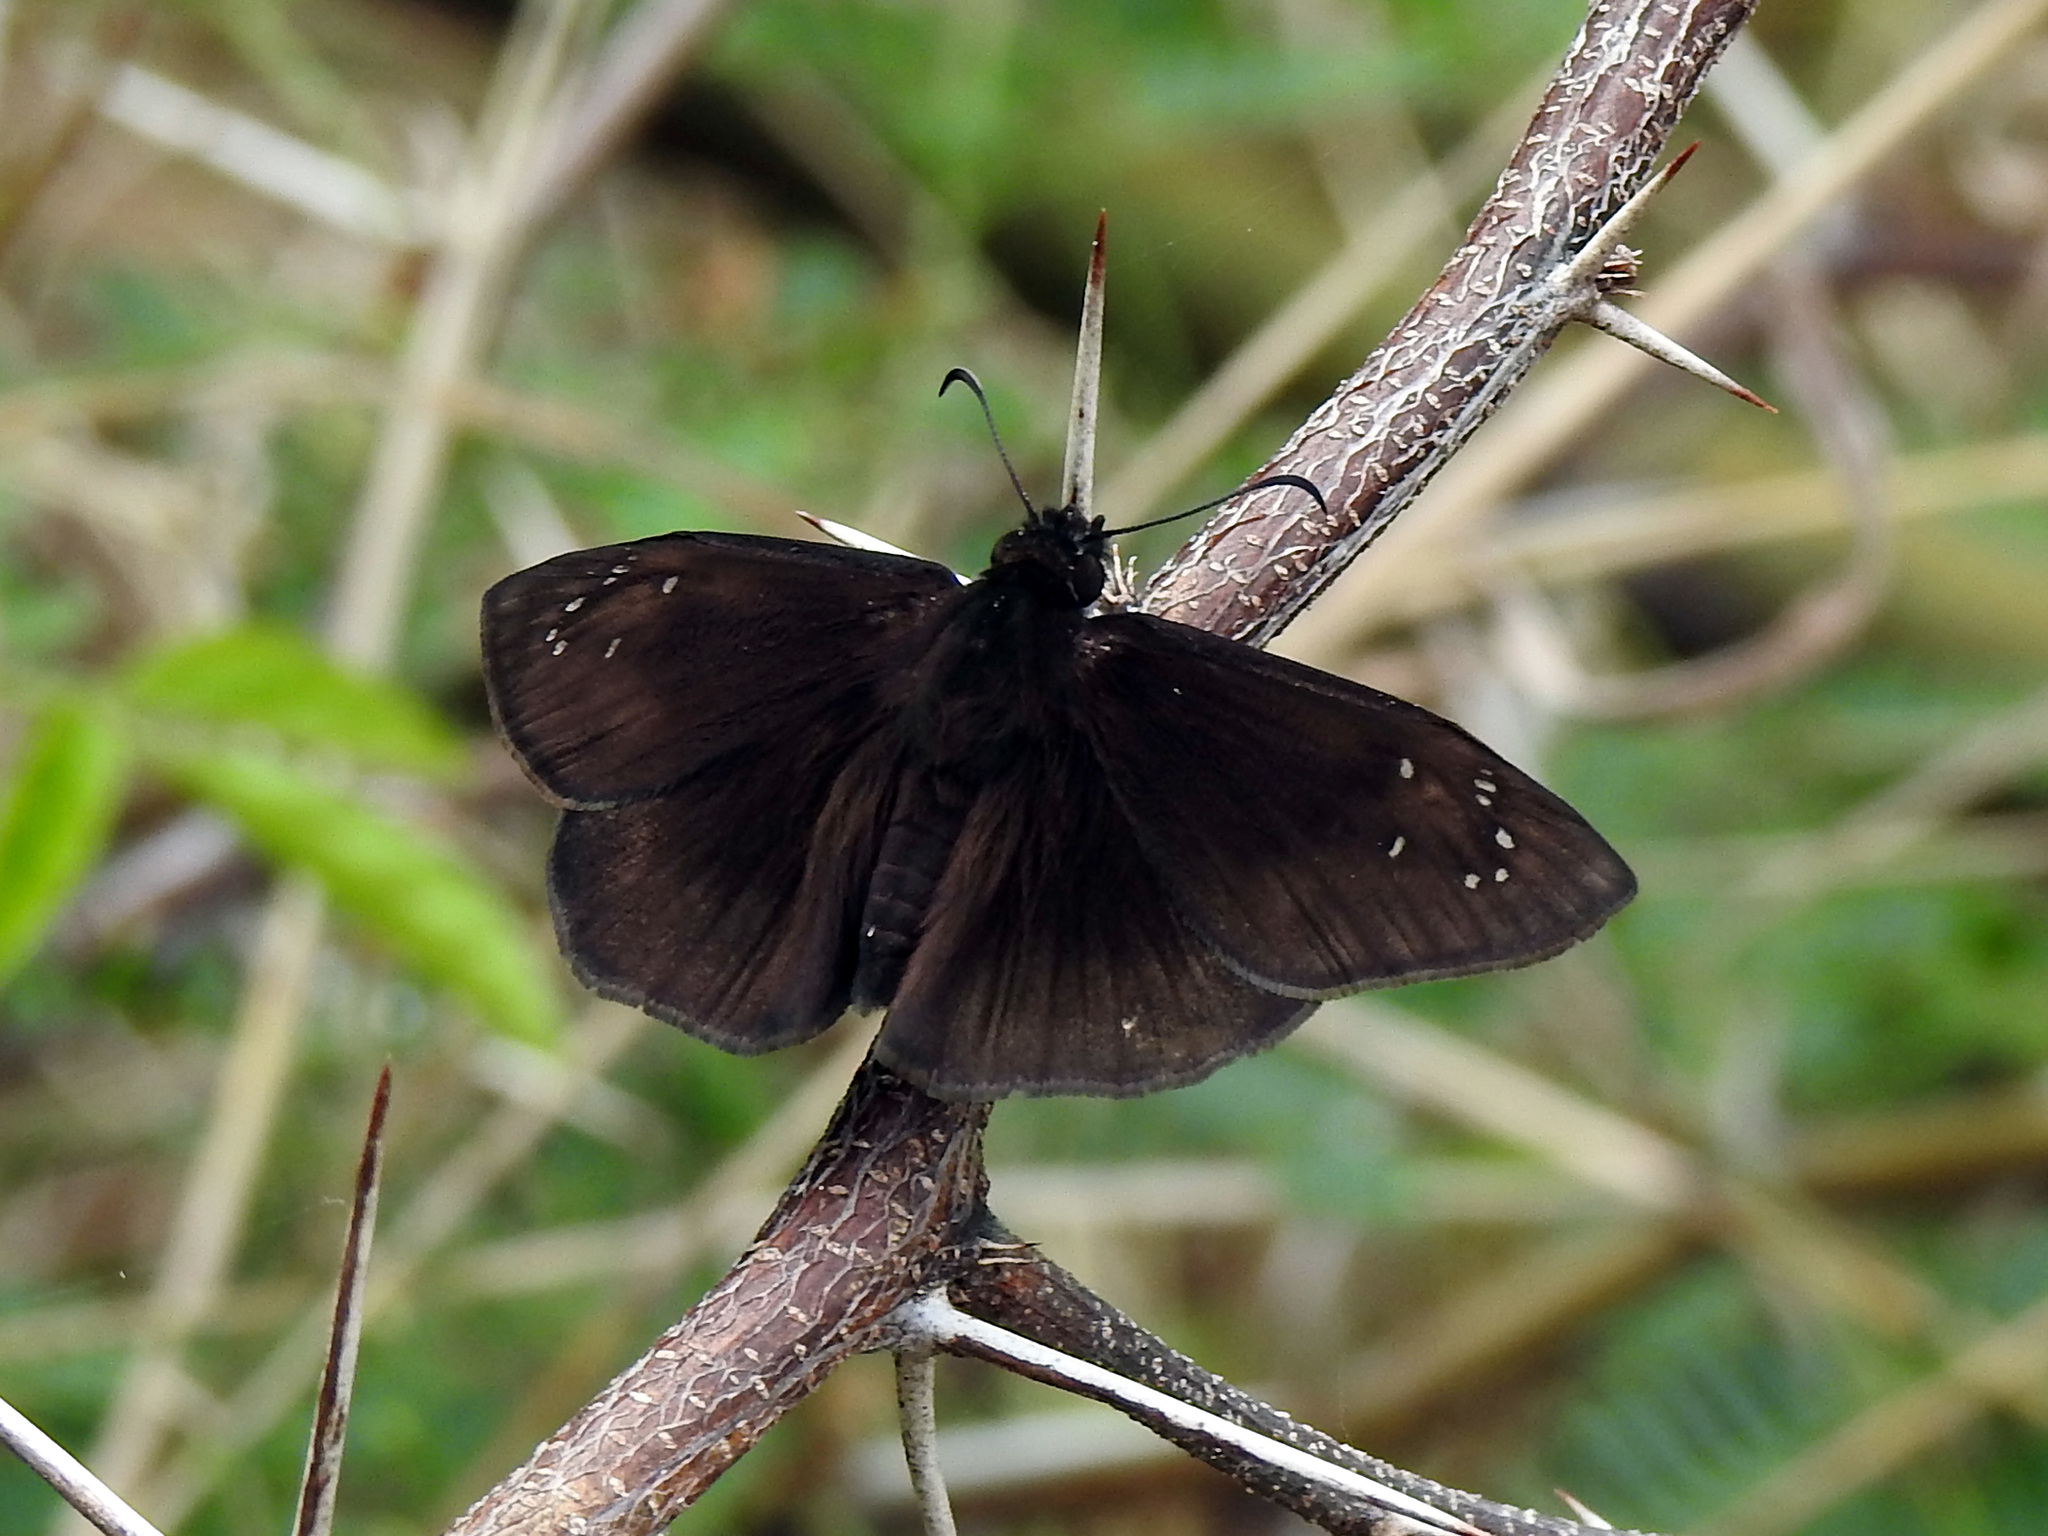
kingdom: Animalia
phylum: Arthropoda
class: Insecta
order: Lepidoptera
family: Hesperiidae
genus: Ephyriades
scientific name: Ephyriades brunnea
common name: Florida duskywing
